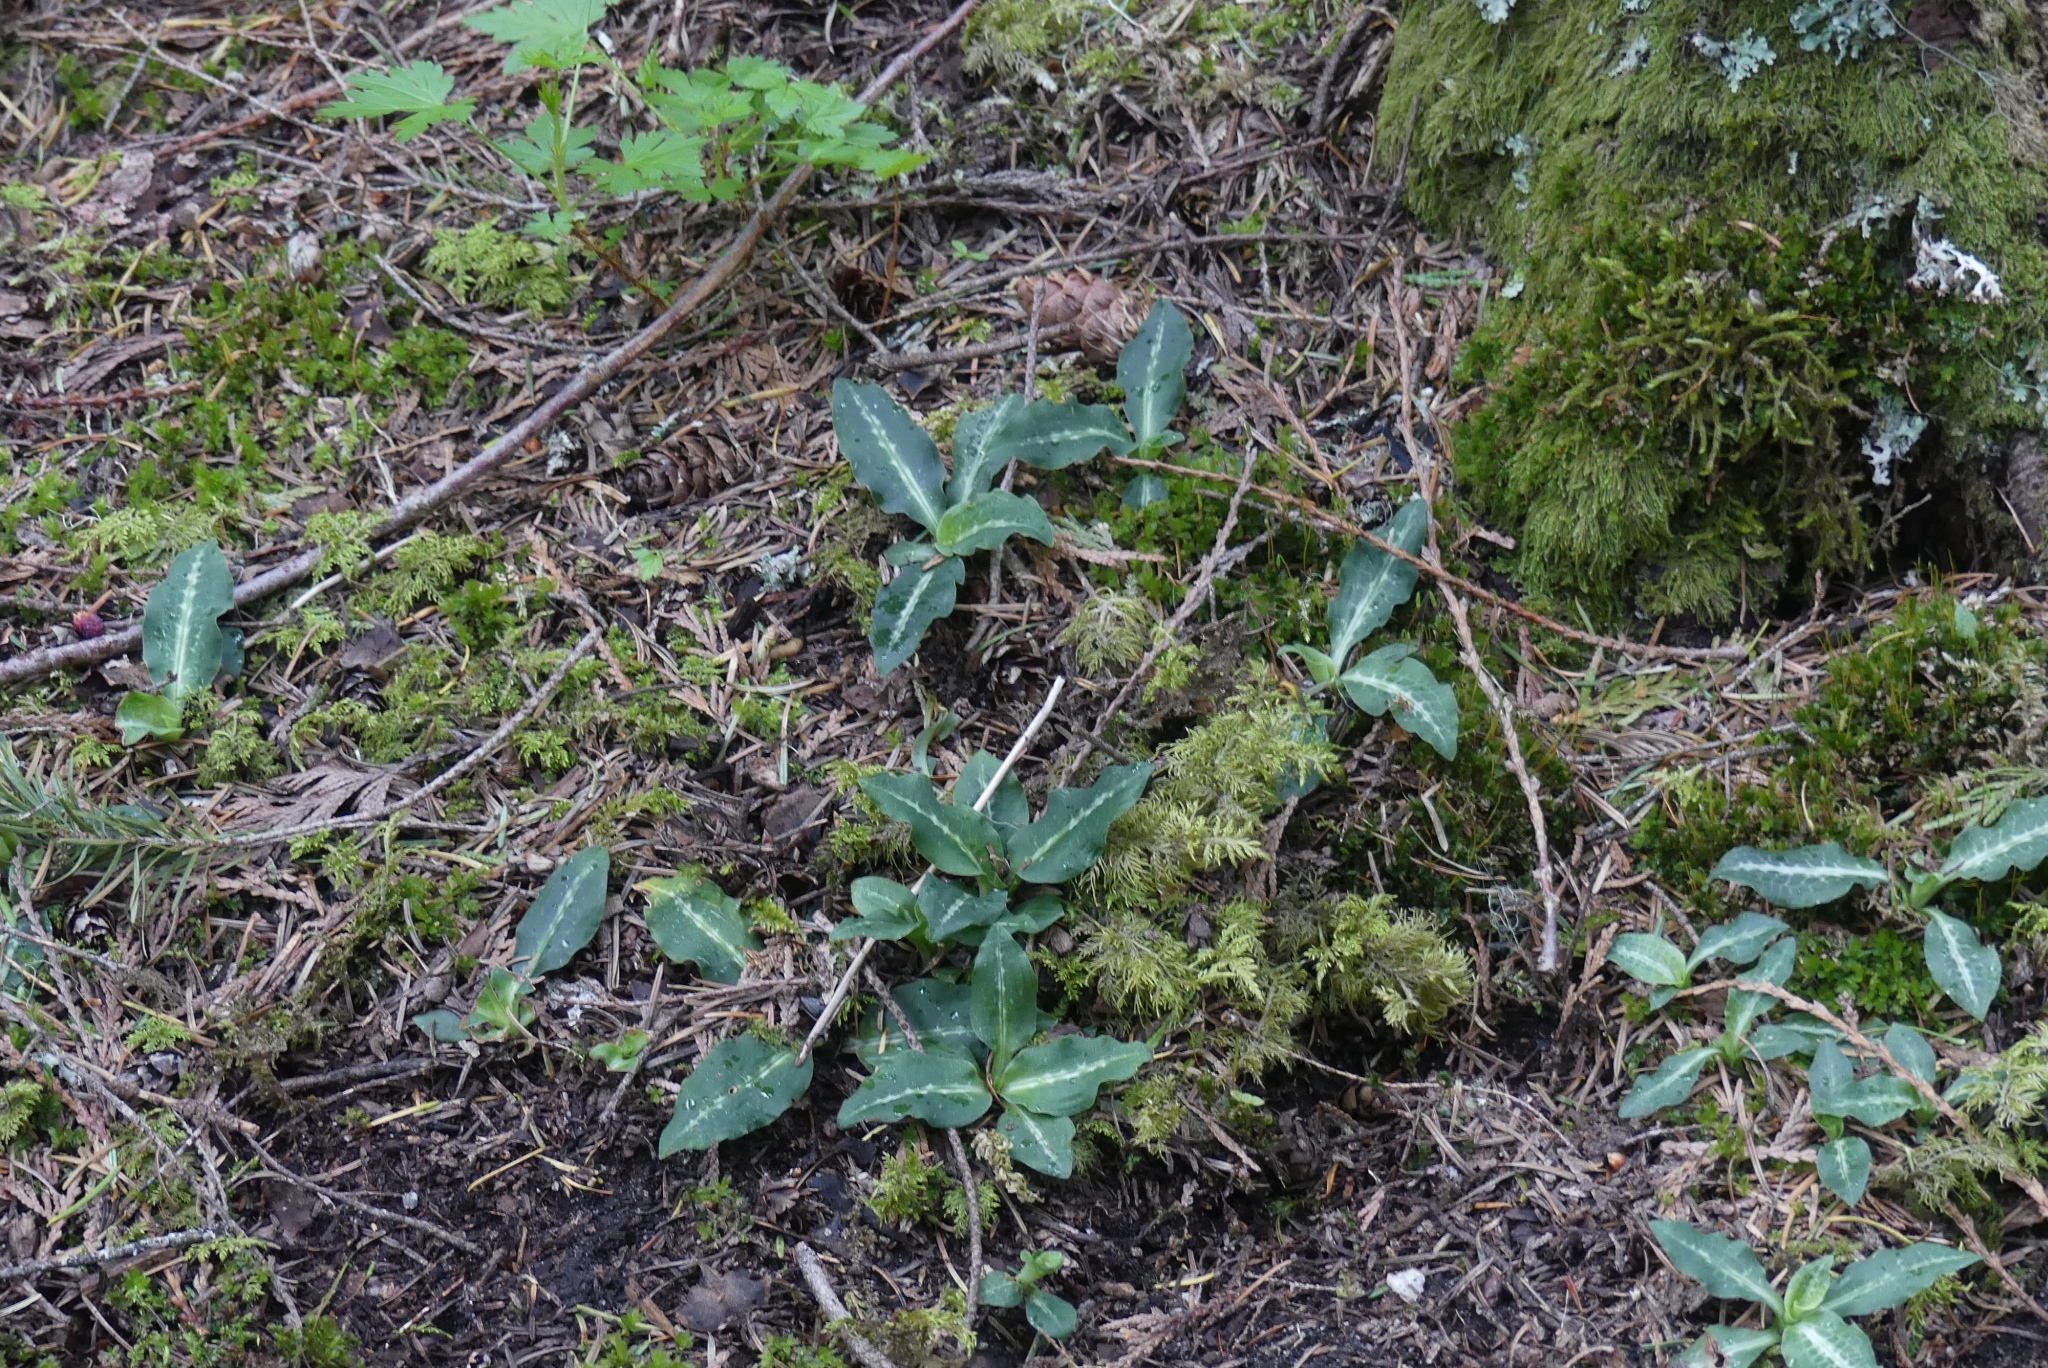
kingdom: Plantae
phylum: Tracheophyta
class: Liliopsida
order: Asparagales
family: Orchidaceae
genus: Goodyera
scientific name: Goodyera oblongifolia
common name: Giant rattlesnake-plantain
